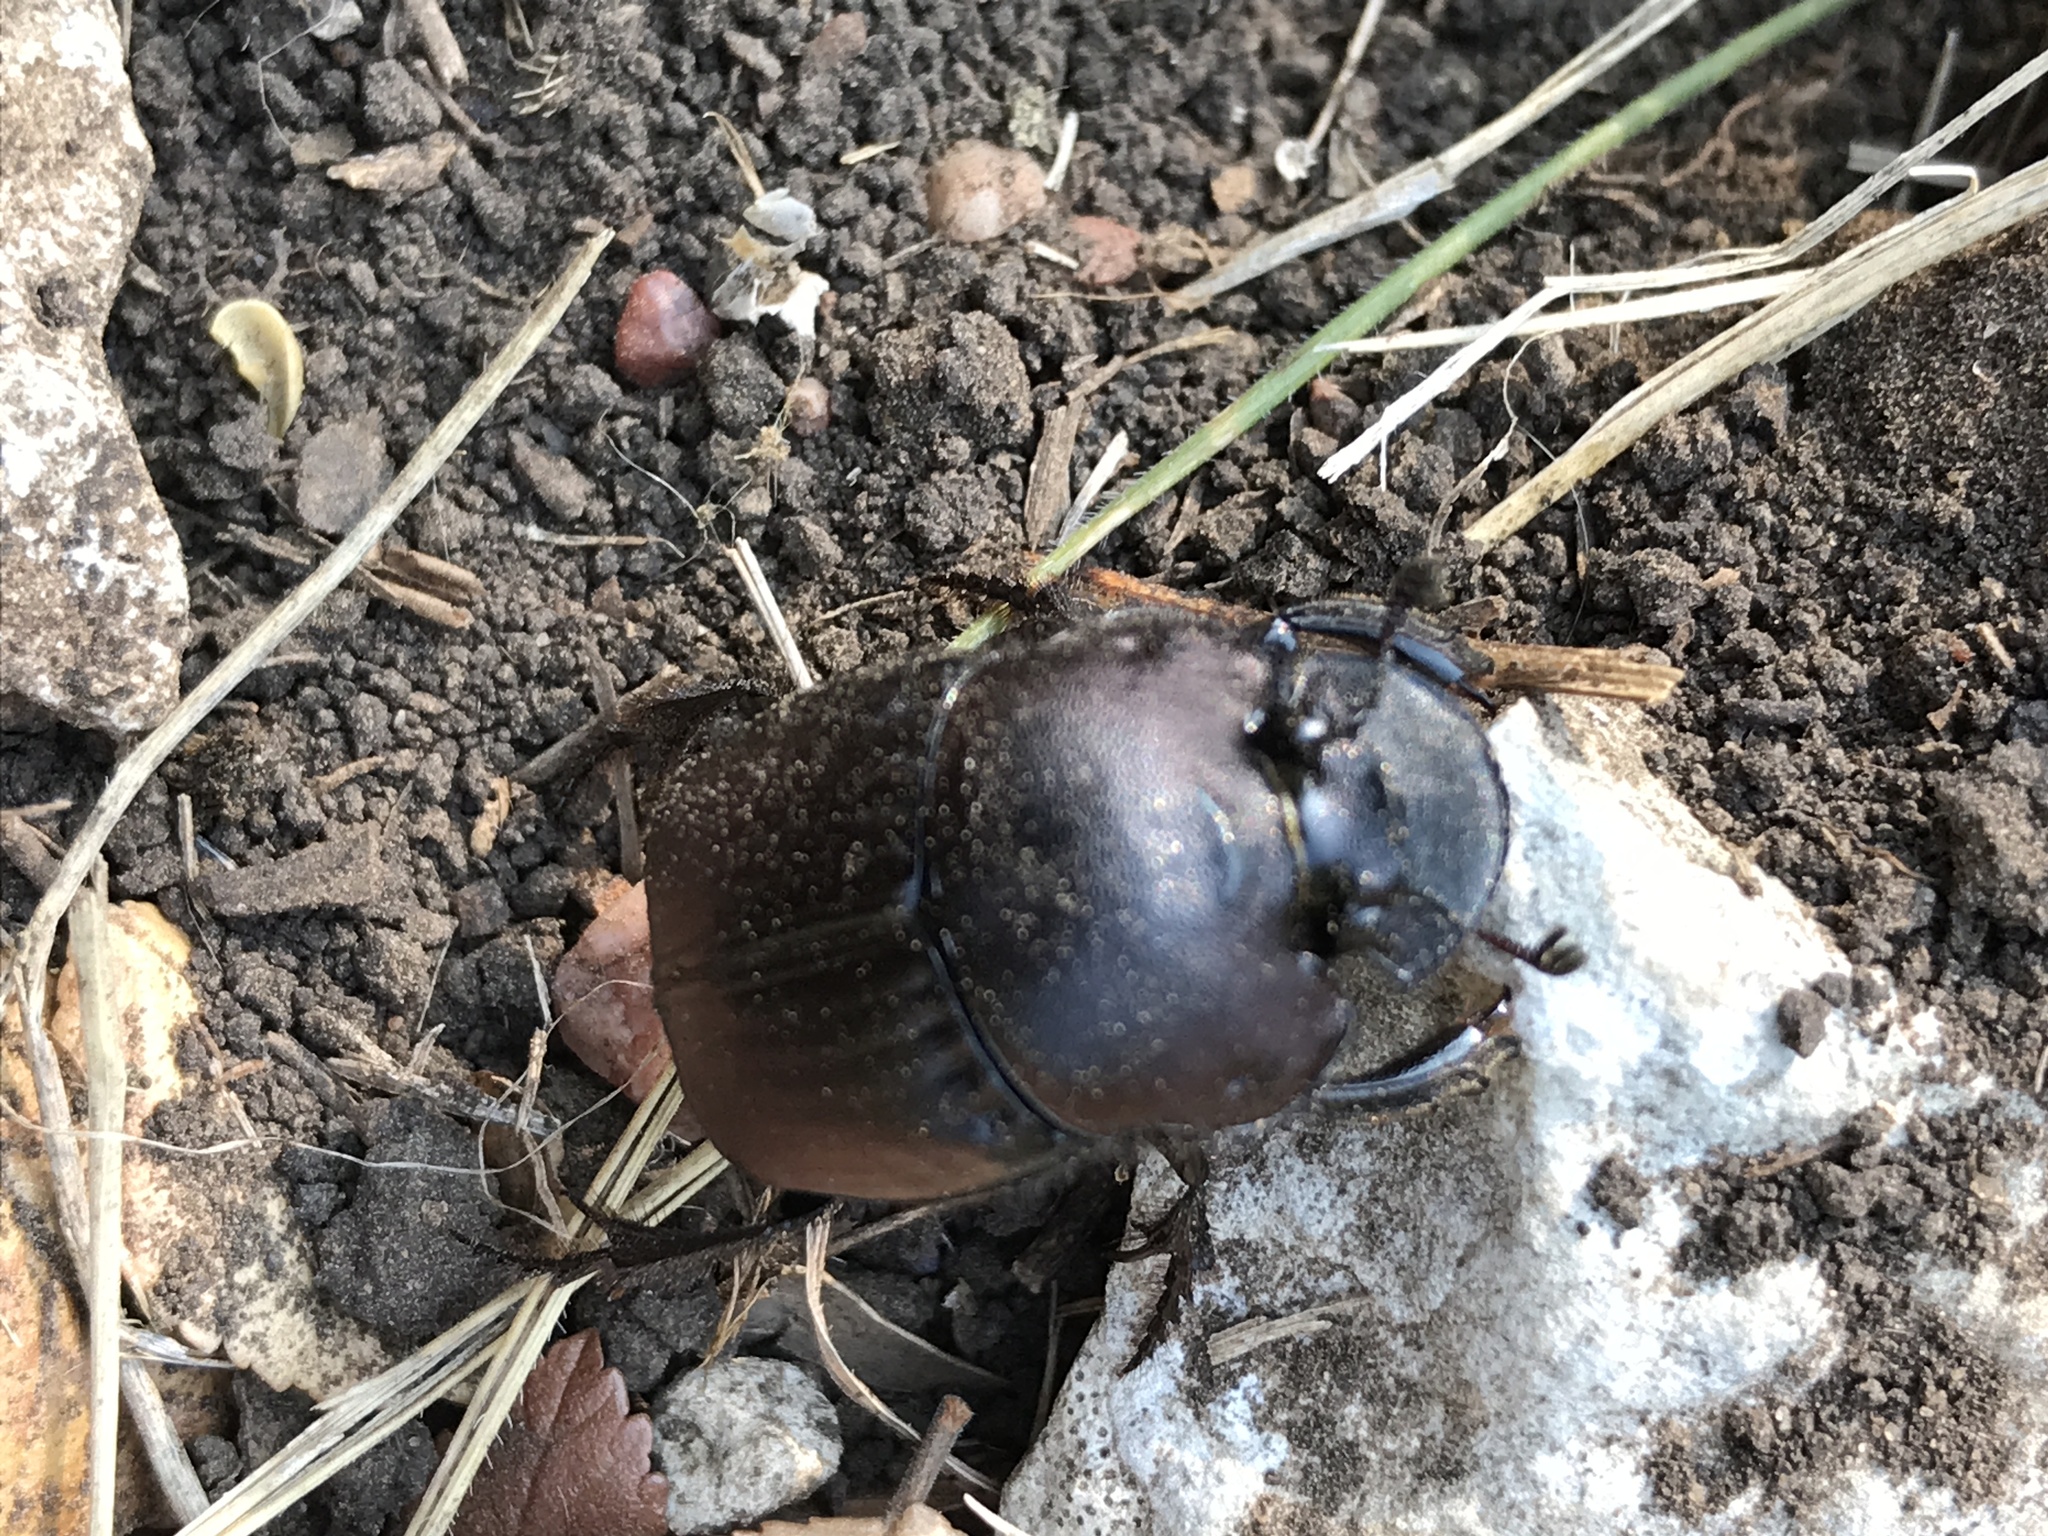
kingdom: Animalia
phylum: Arthropoda
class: Insecta
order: Coleoptera
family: Scarabaeidae
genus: Phanaeus
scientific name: Phanaeus texensis
